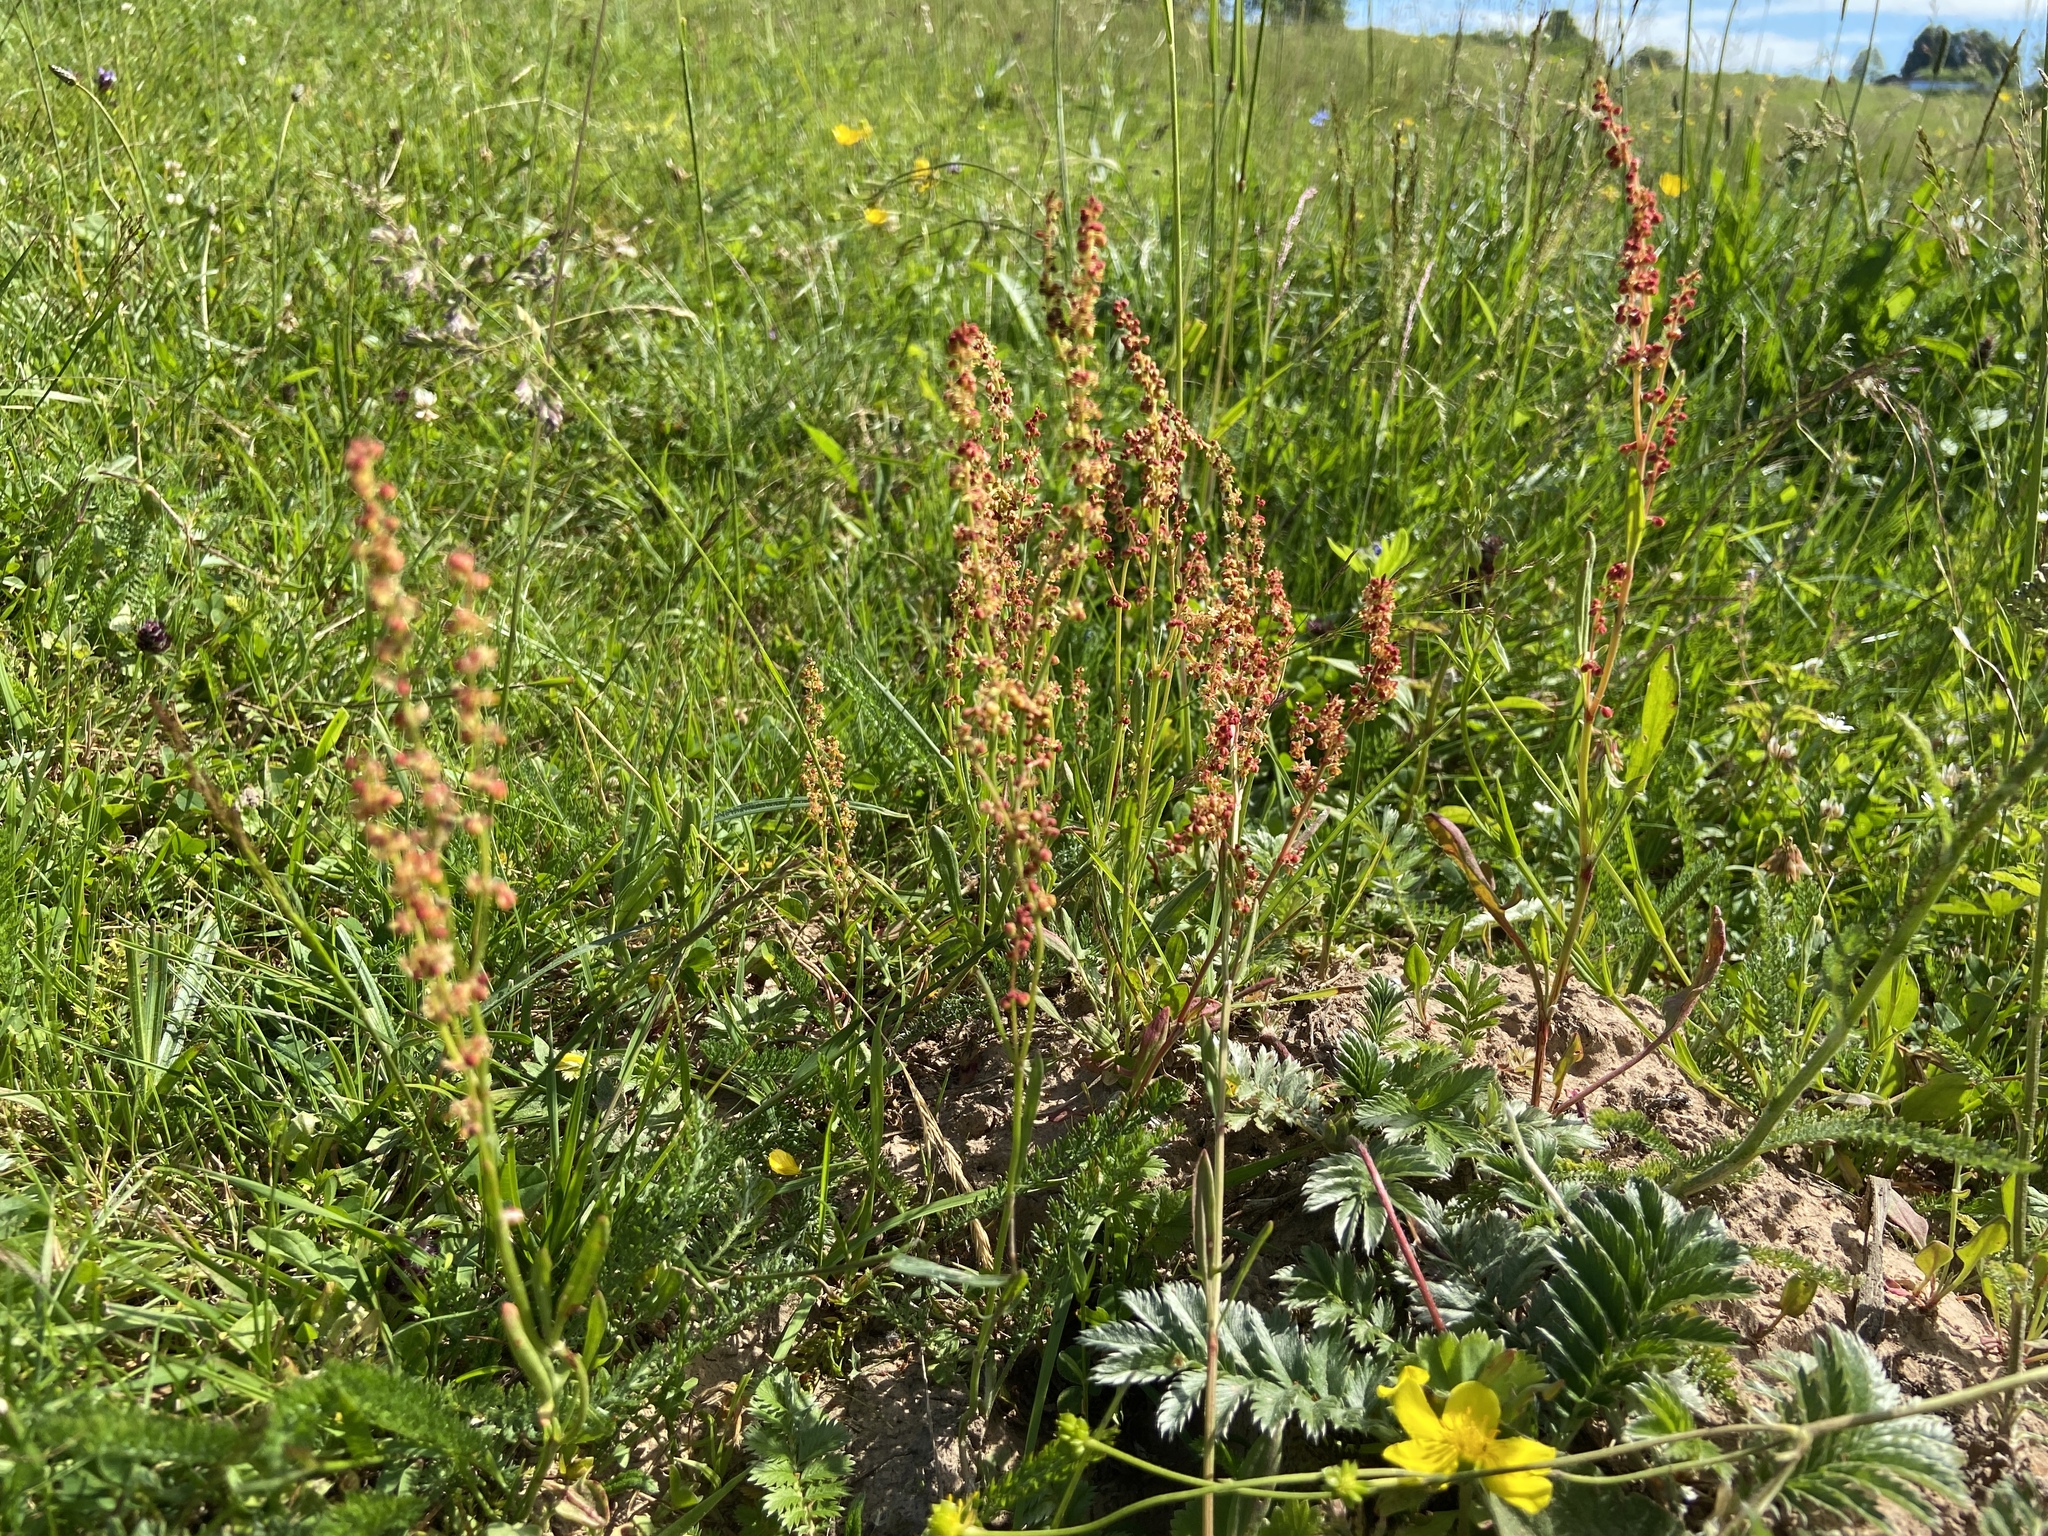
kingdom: Plantae
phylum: Tracheophyta
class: Magnoliopsida
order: Caryophyllales
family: Polygonaceae
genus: Rumex
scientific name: Rumex acetosella
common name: Common sheep sorrel
